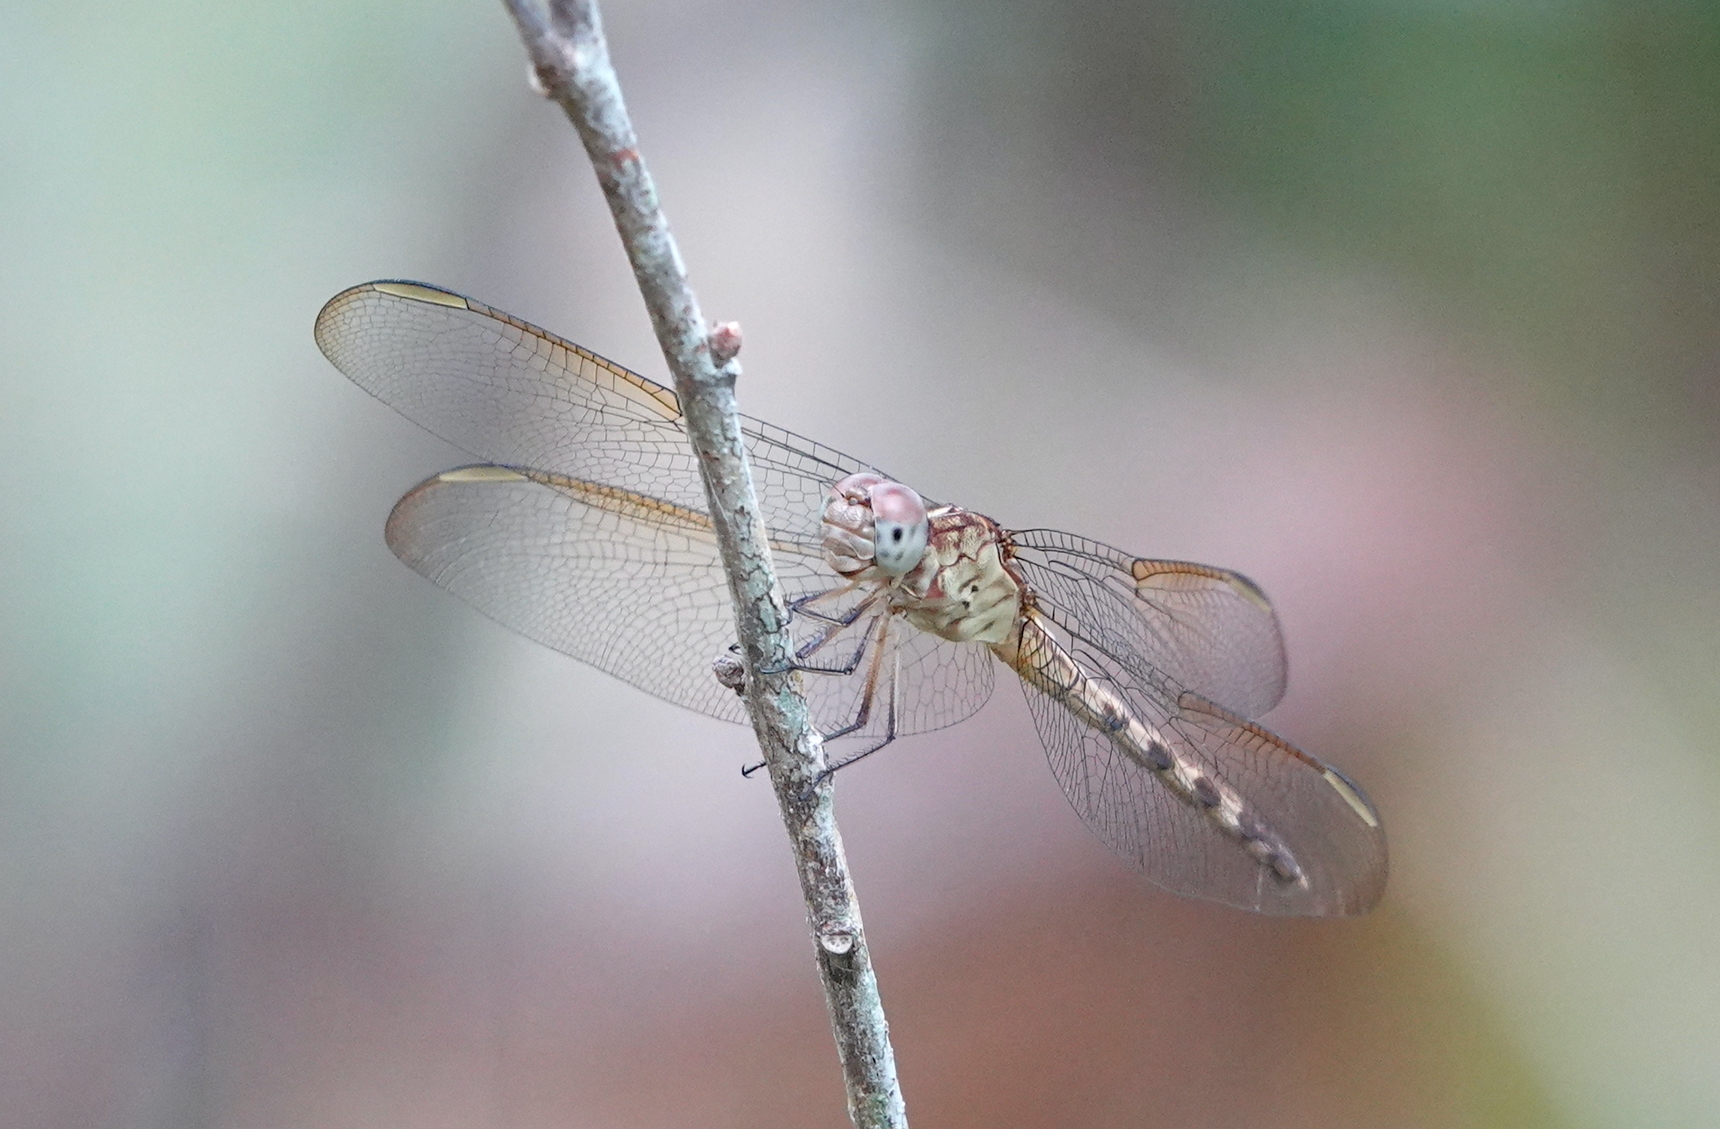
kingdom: Animalia
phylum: Arthropoda
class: Insecta
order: Odonata
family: Libellulidae
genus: Erythrodiplax
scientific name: Erythrodiplax umbrata
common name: Band-winged dragonlet
